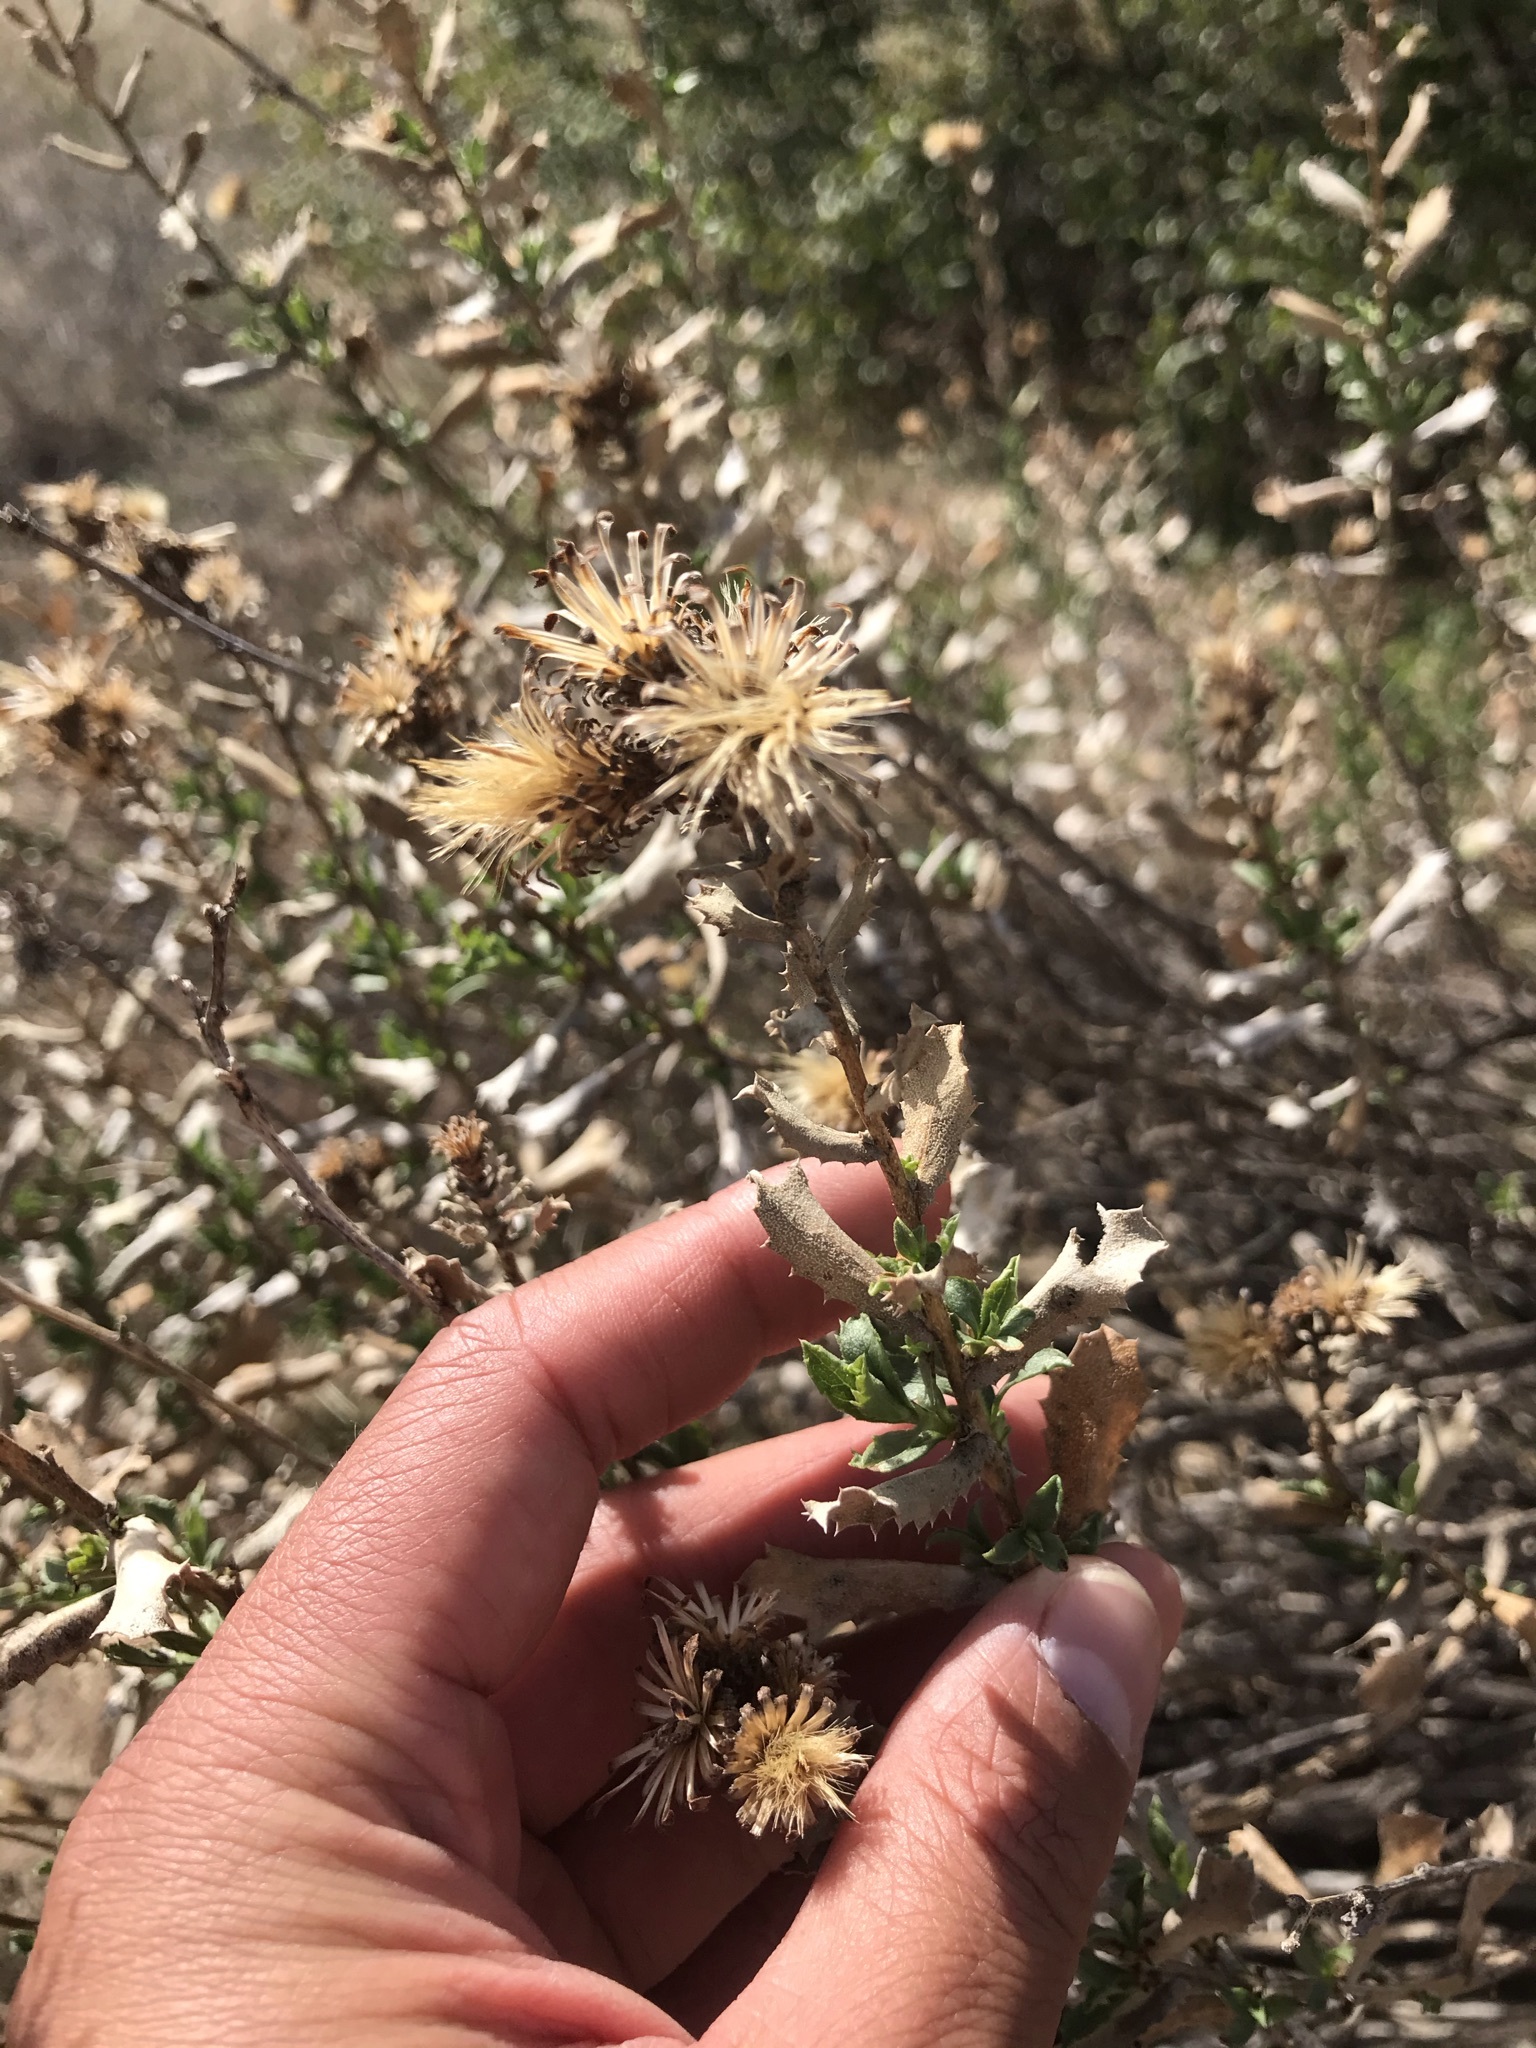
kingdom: Plantae
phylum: Tracheophyta
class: Magnoliopsida
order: Asterales
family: Asteraceae
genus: Hazardia
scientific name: Hazardia squarrosa
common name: Saw-tooth goldenbush
